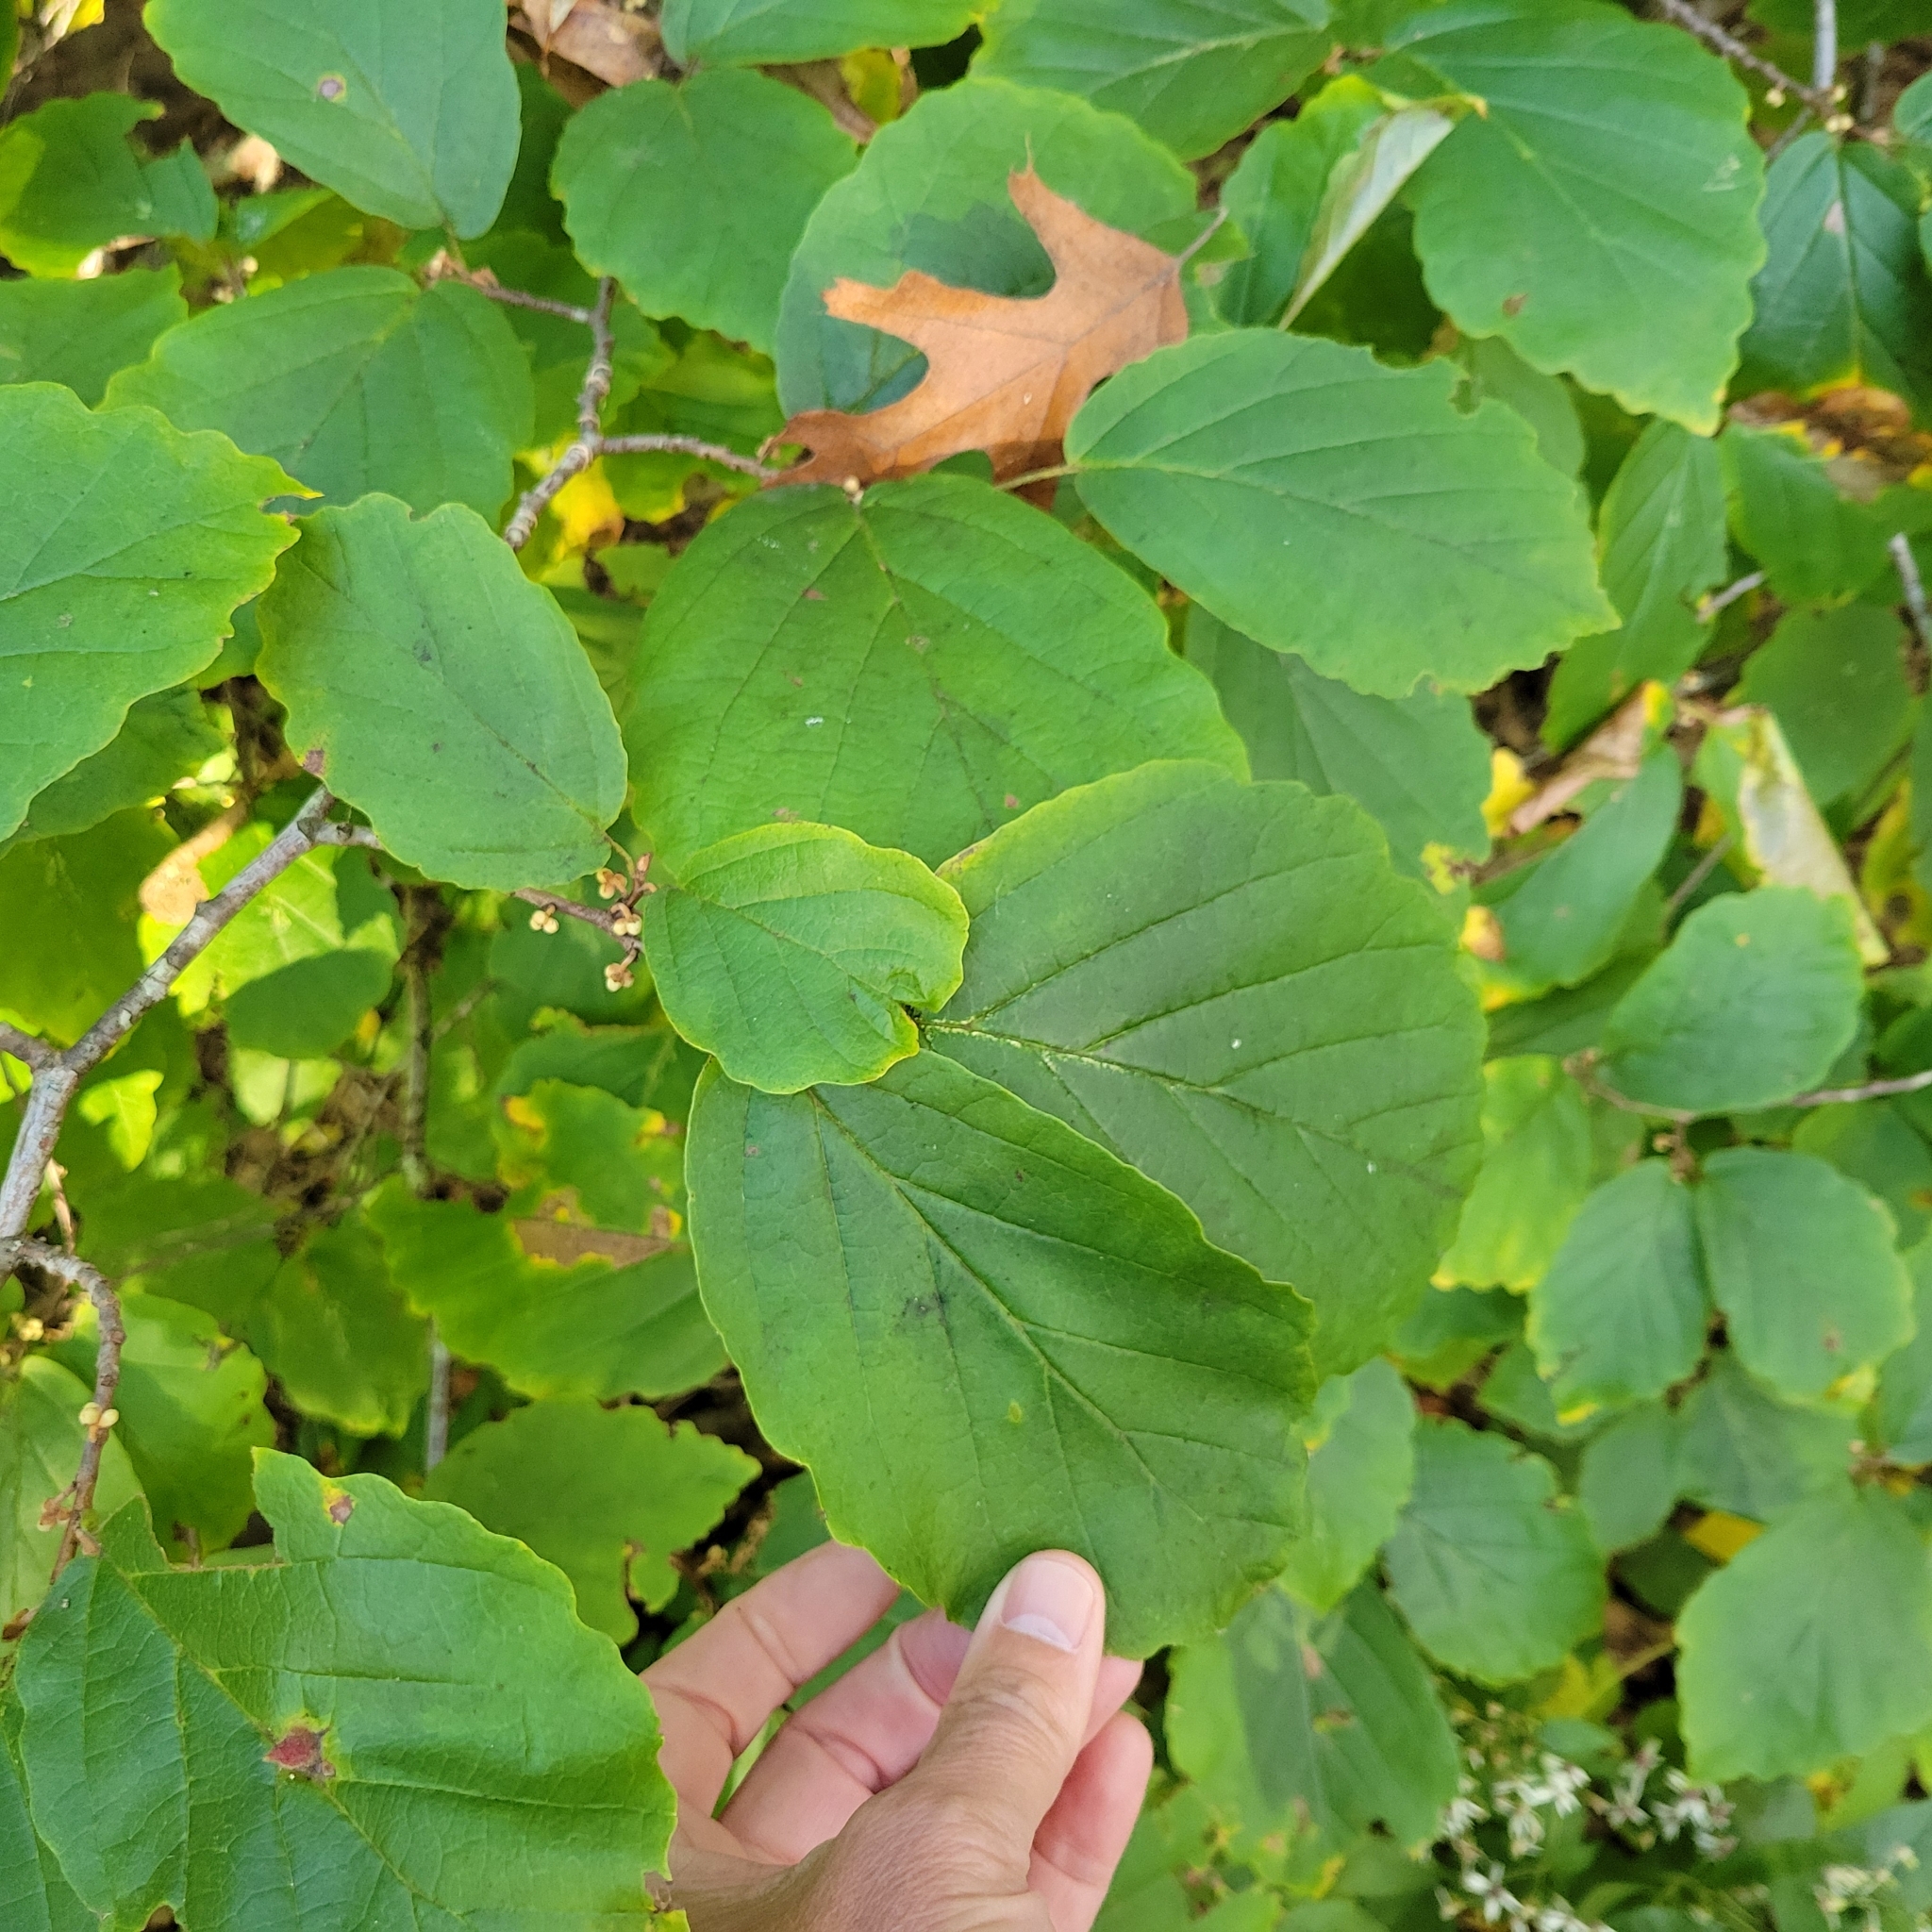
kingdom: Plantae
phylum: Tracheophyta
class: Magnoliopsida
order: Saxifragales
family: Hamamelidaceae
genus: Hamamelis
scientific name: Hamamelis virginiana
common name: Witch-hazel
